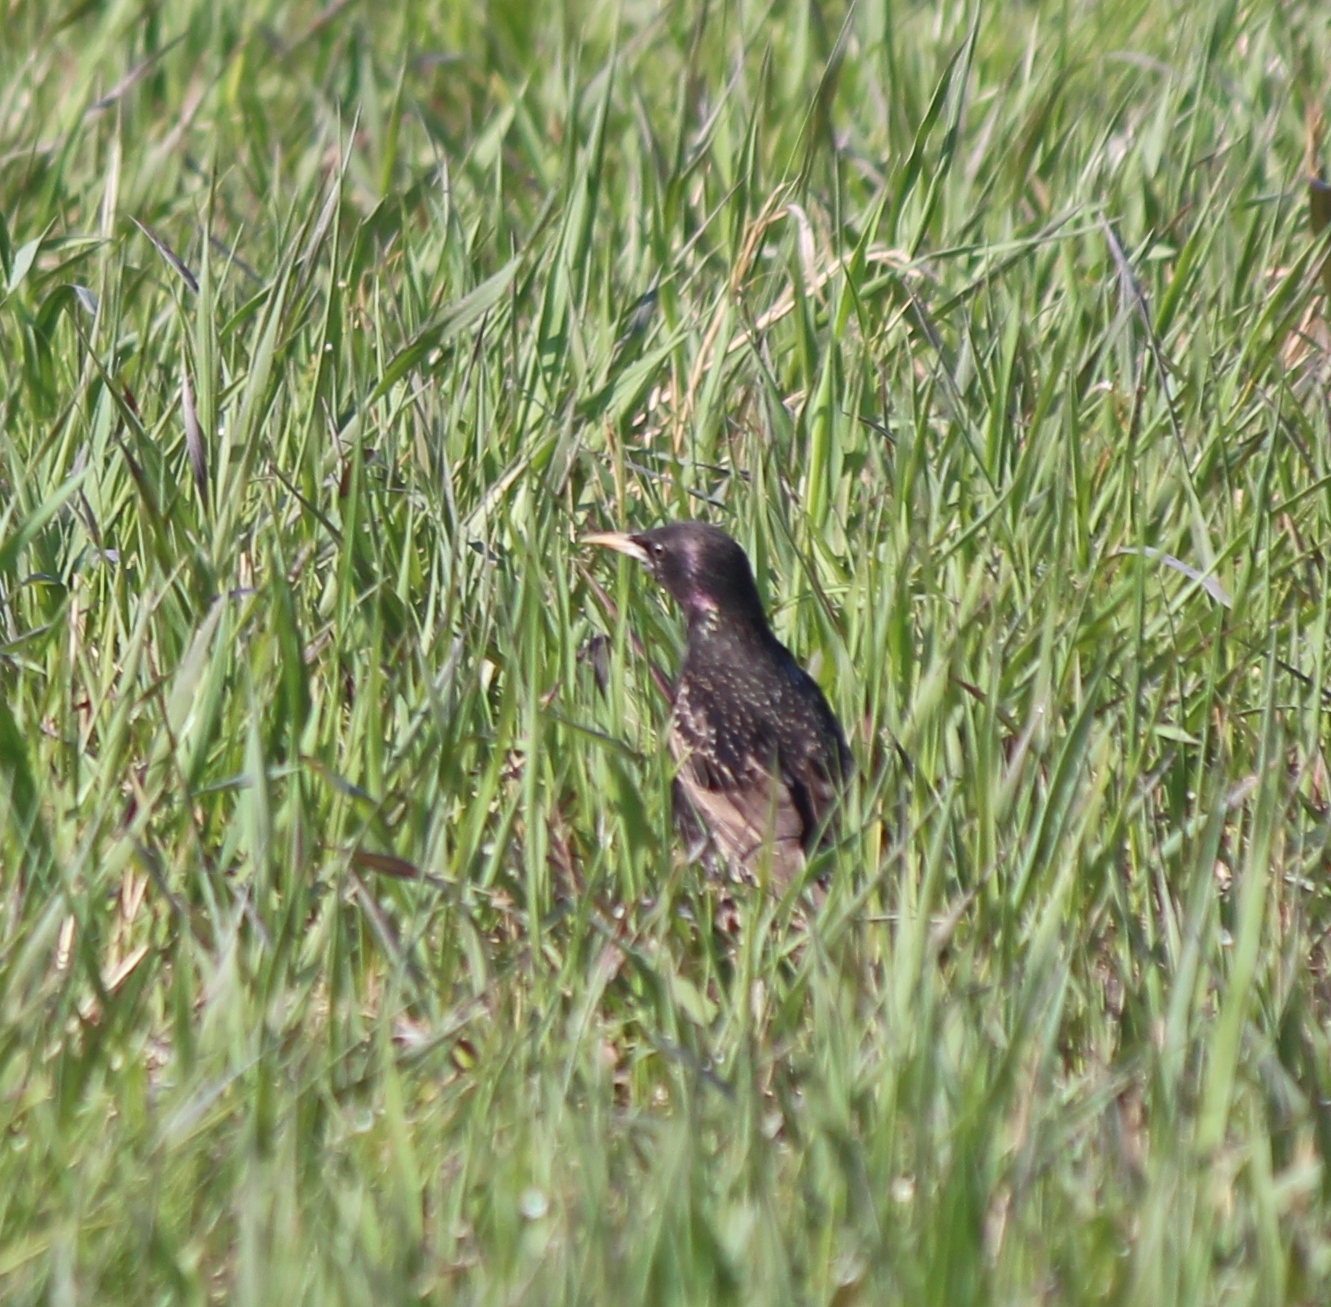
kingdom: Animalia
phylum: Chordata
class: Aves
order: Passeriformes
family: Sturnidae
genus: Sturnus
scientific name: Sturnus vulgaris
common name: Common starling
